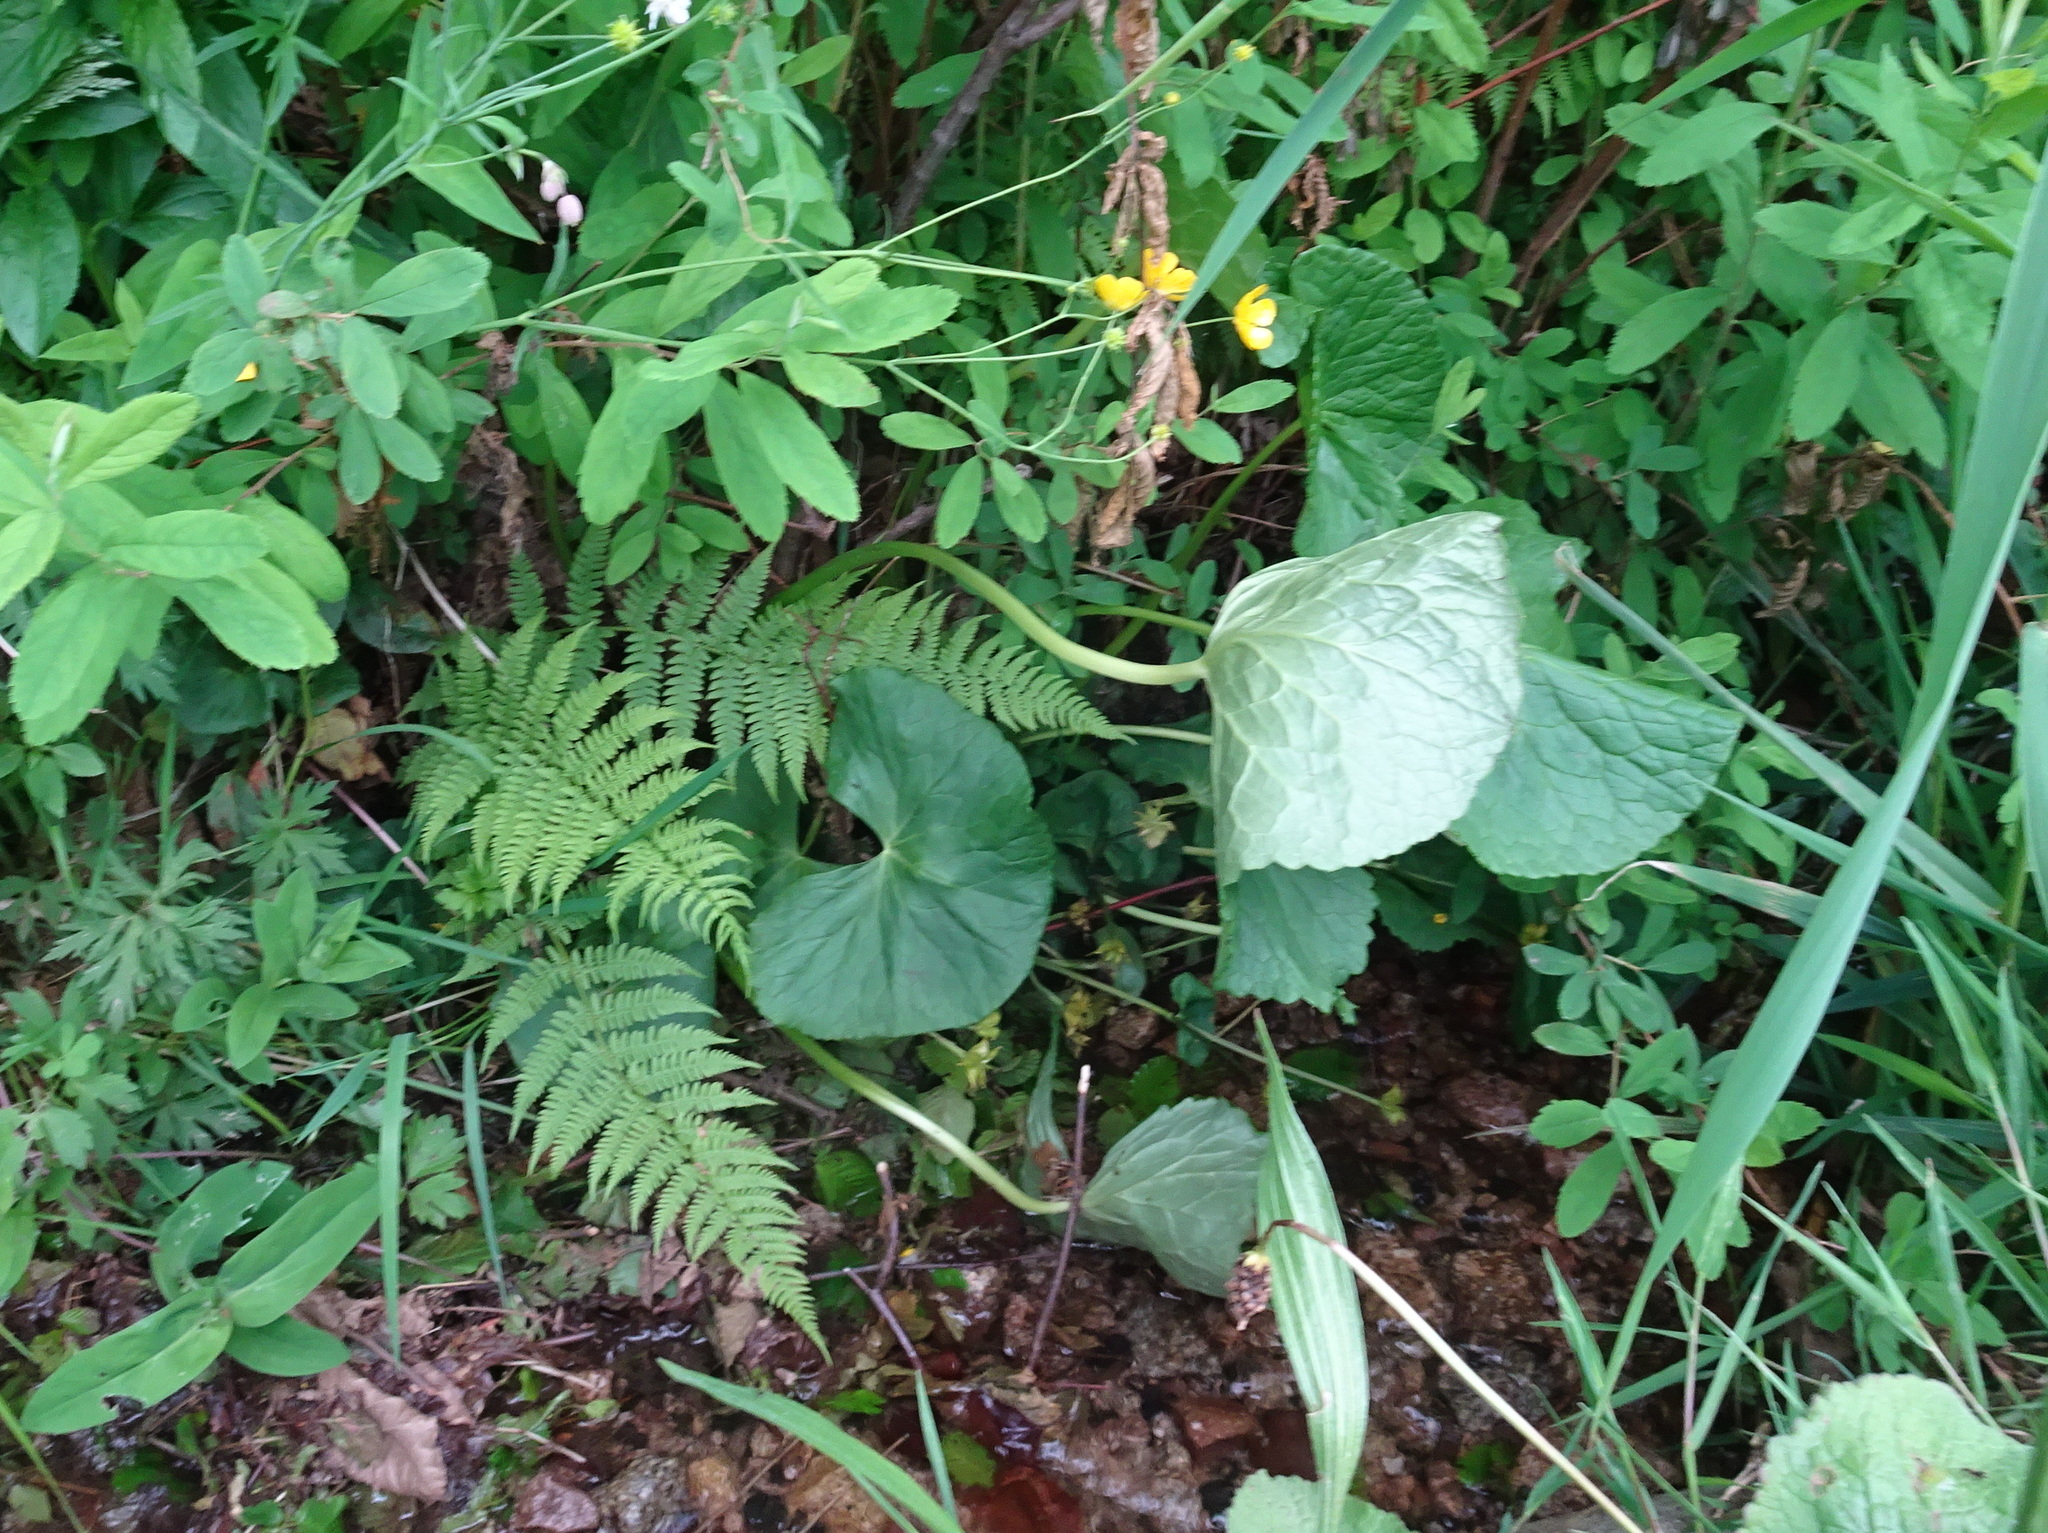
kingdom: Plantae
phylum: Tracheophyta
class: Magnoliopsida
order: Ranunculales
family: Ranunculaceae
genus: Caltha
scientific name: Caltha palustris
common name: Marsh marigold
